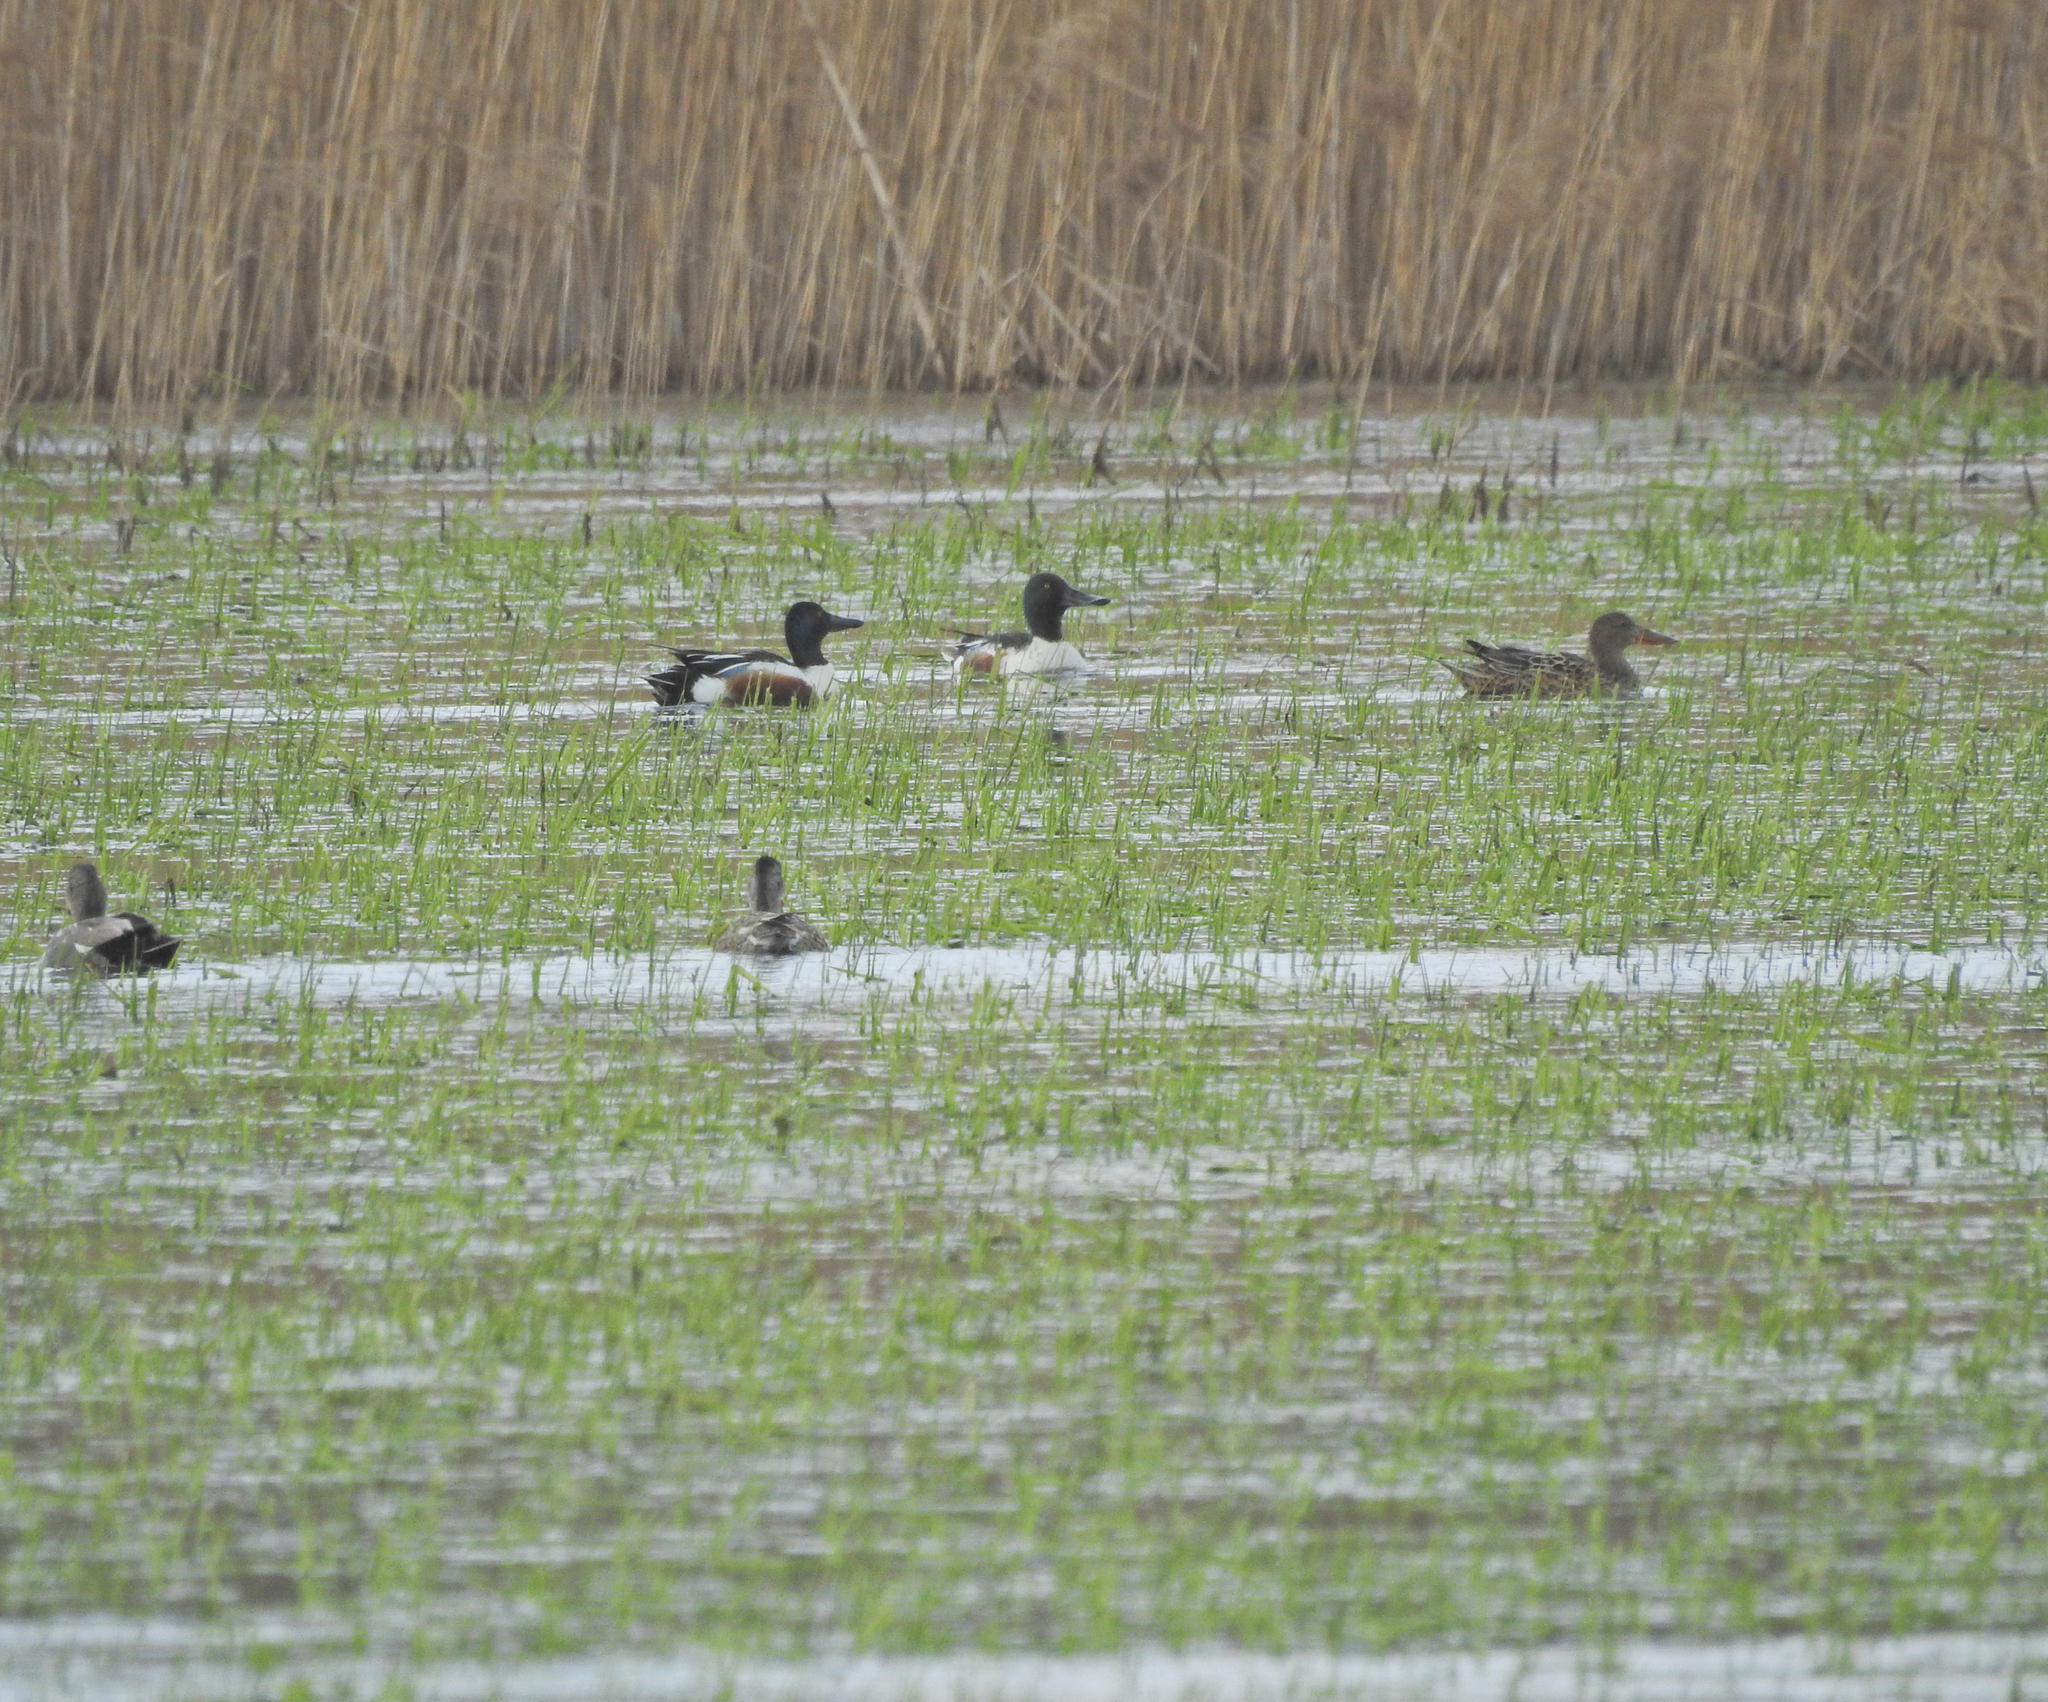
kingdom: Animalia
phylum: Chordata
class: Aves
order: Anseriformes
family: Anatidae
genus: Spatula
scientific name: Spatula clypeata
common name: Northern shoveler
